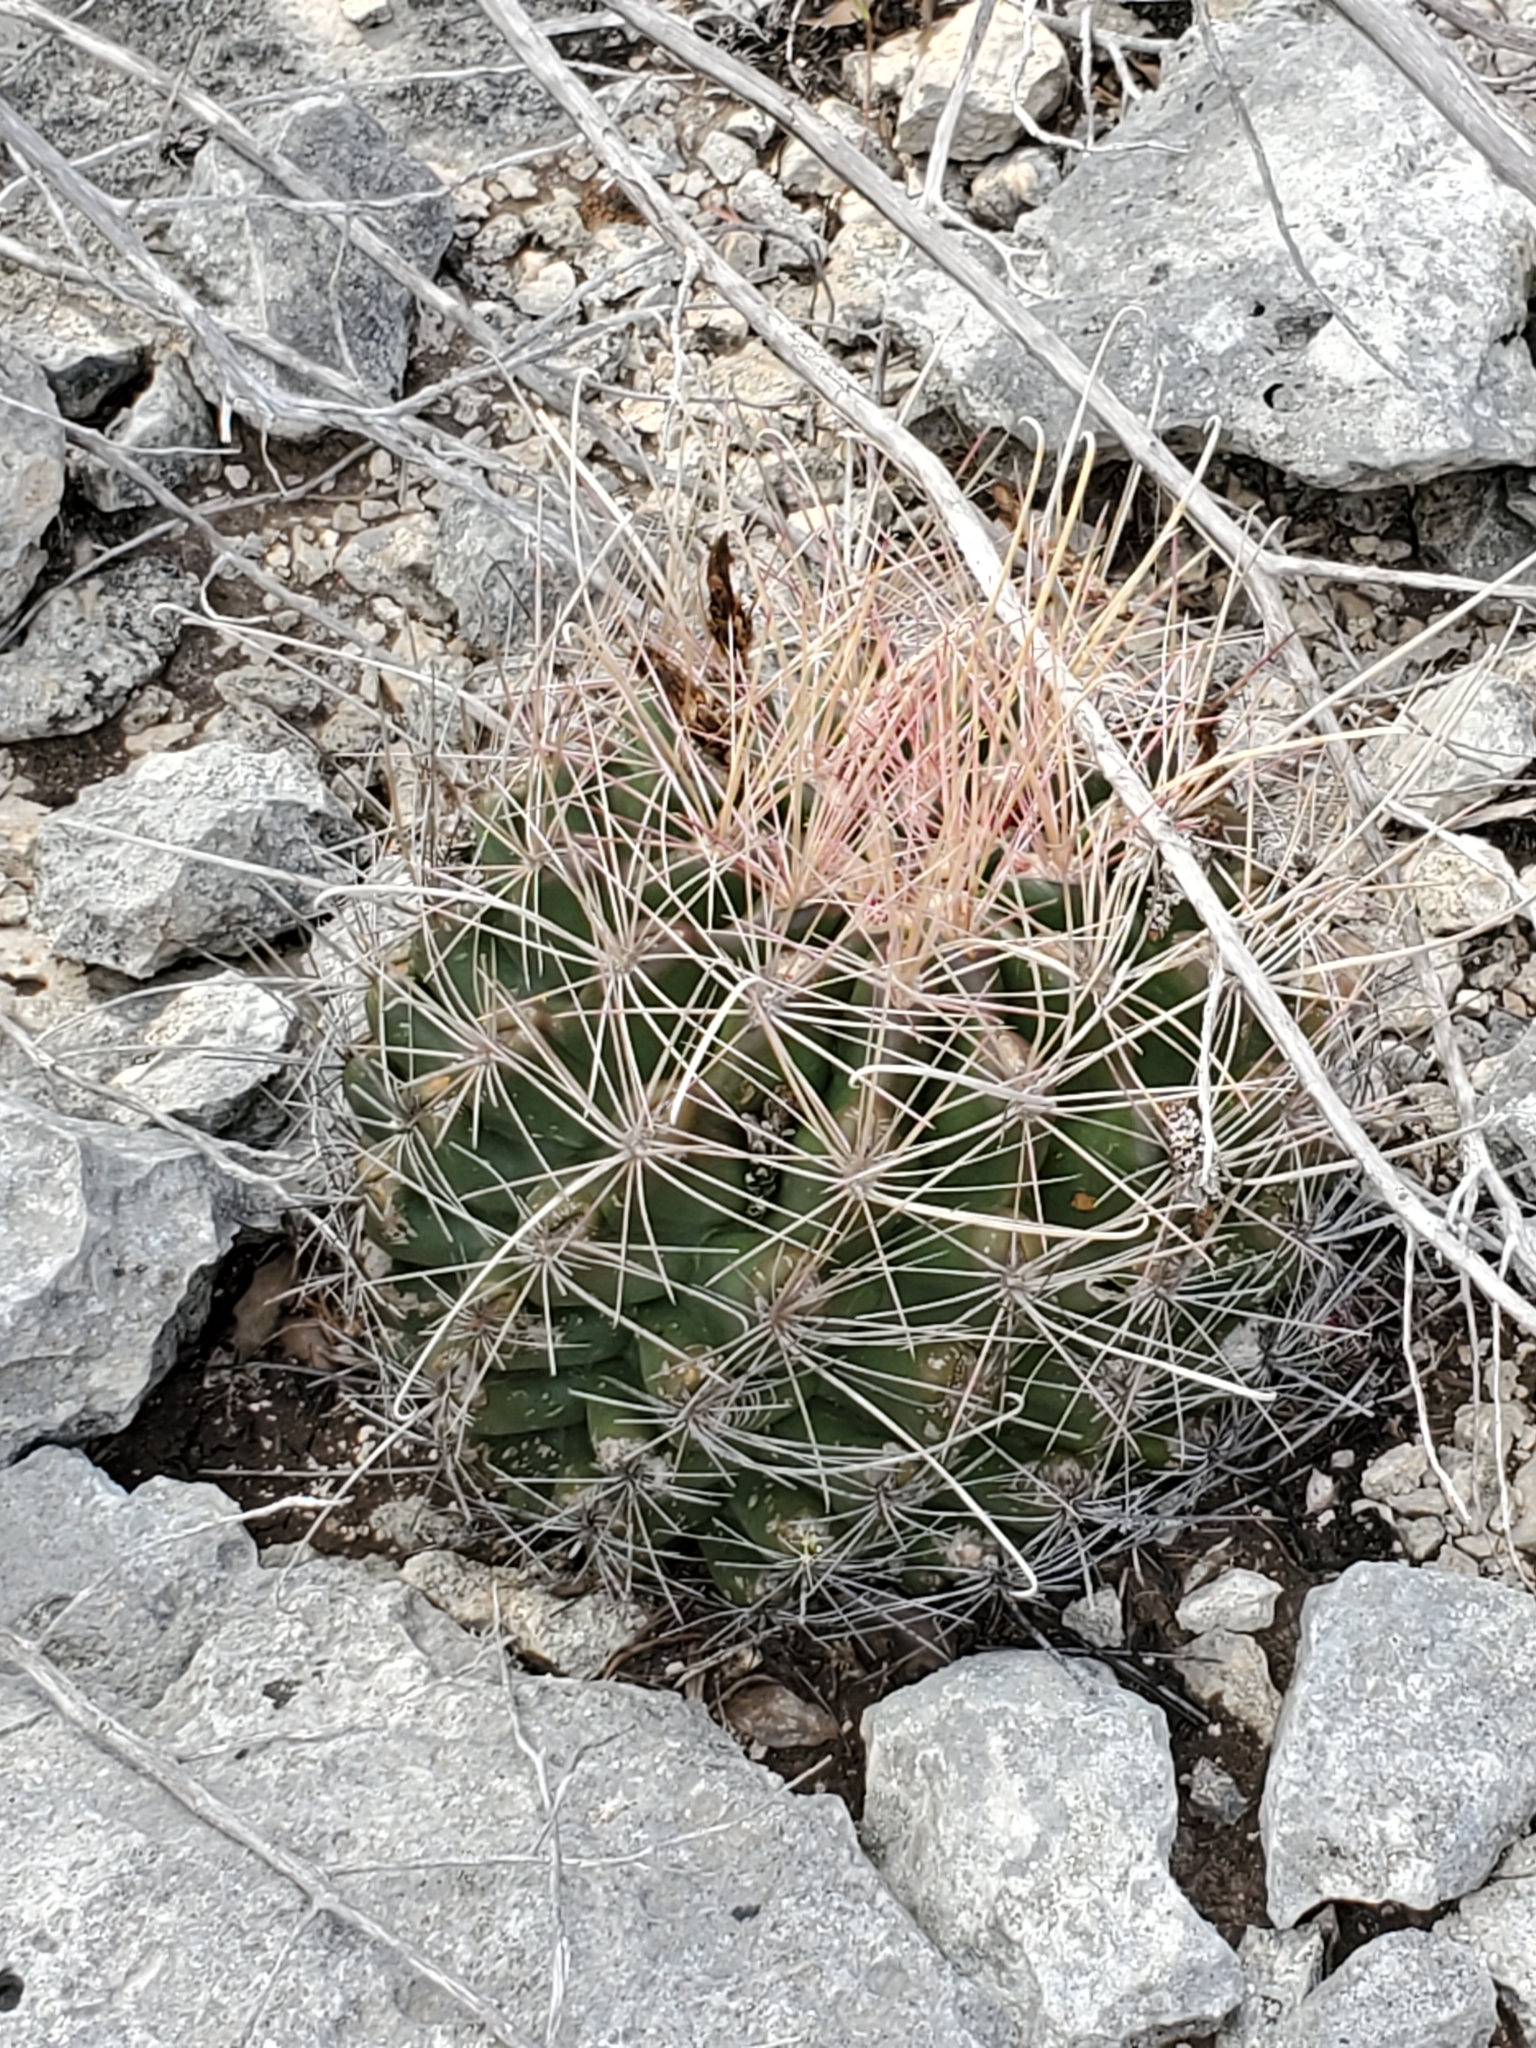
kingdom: Plantae
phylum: Tracheophyta
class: Magnoliopsida
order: Caryophyllales
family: Cactaceae
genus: Bisnaga
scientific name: Bisnaga hamatacantha
